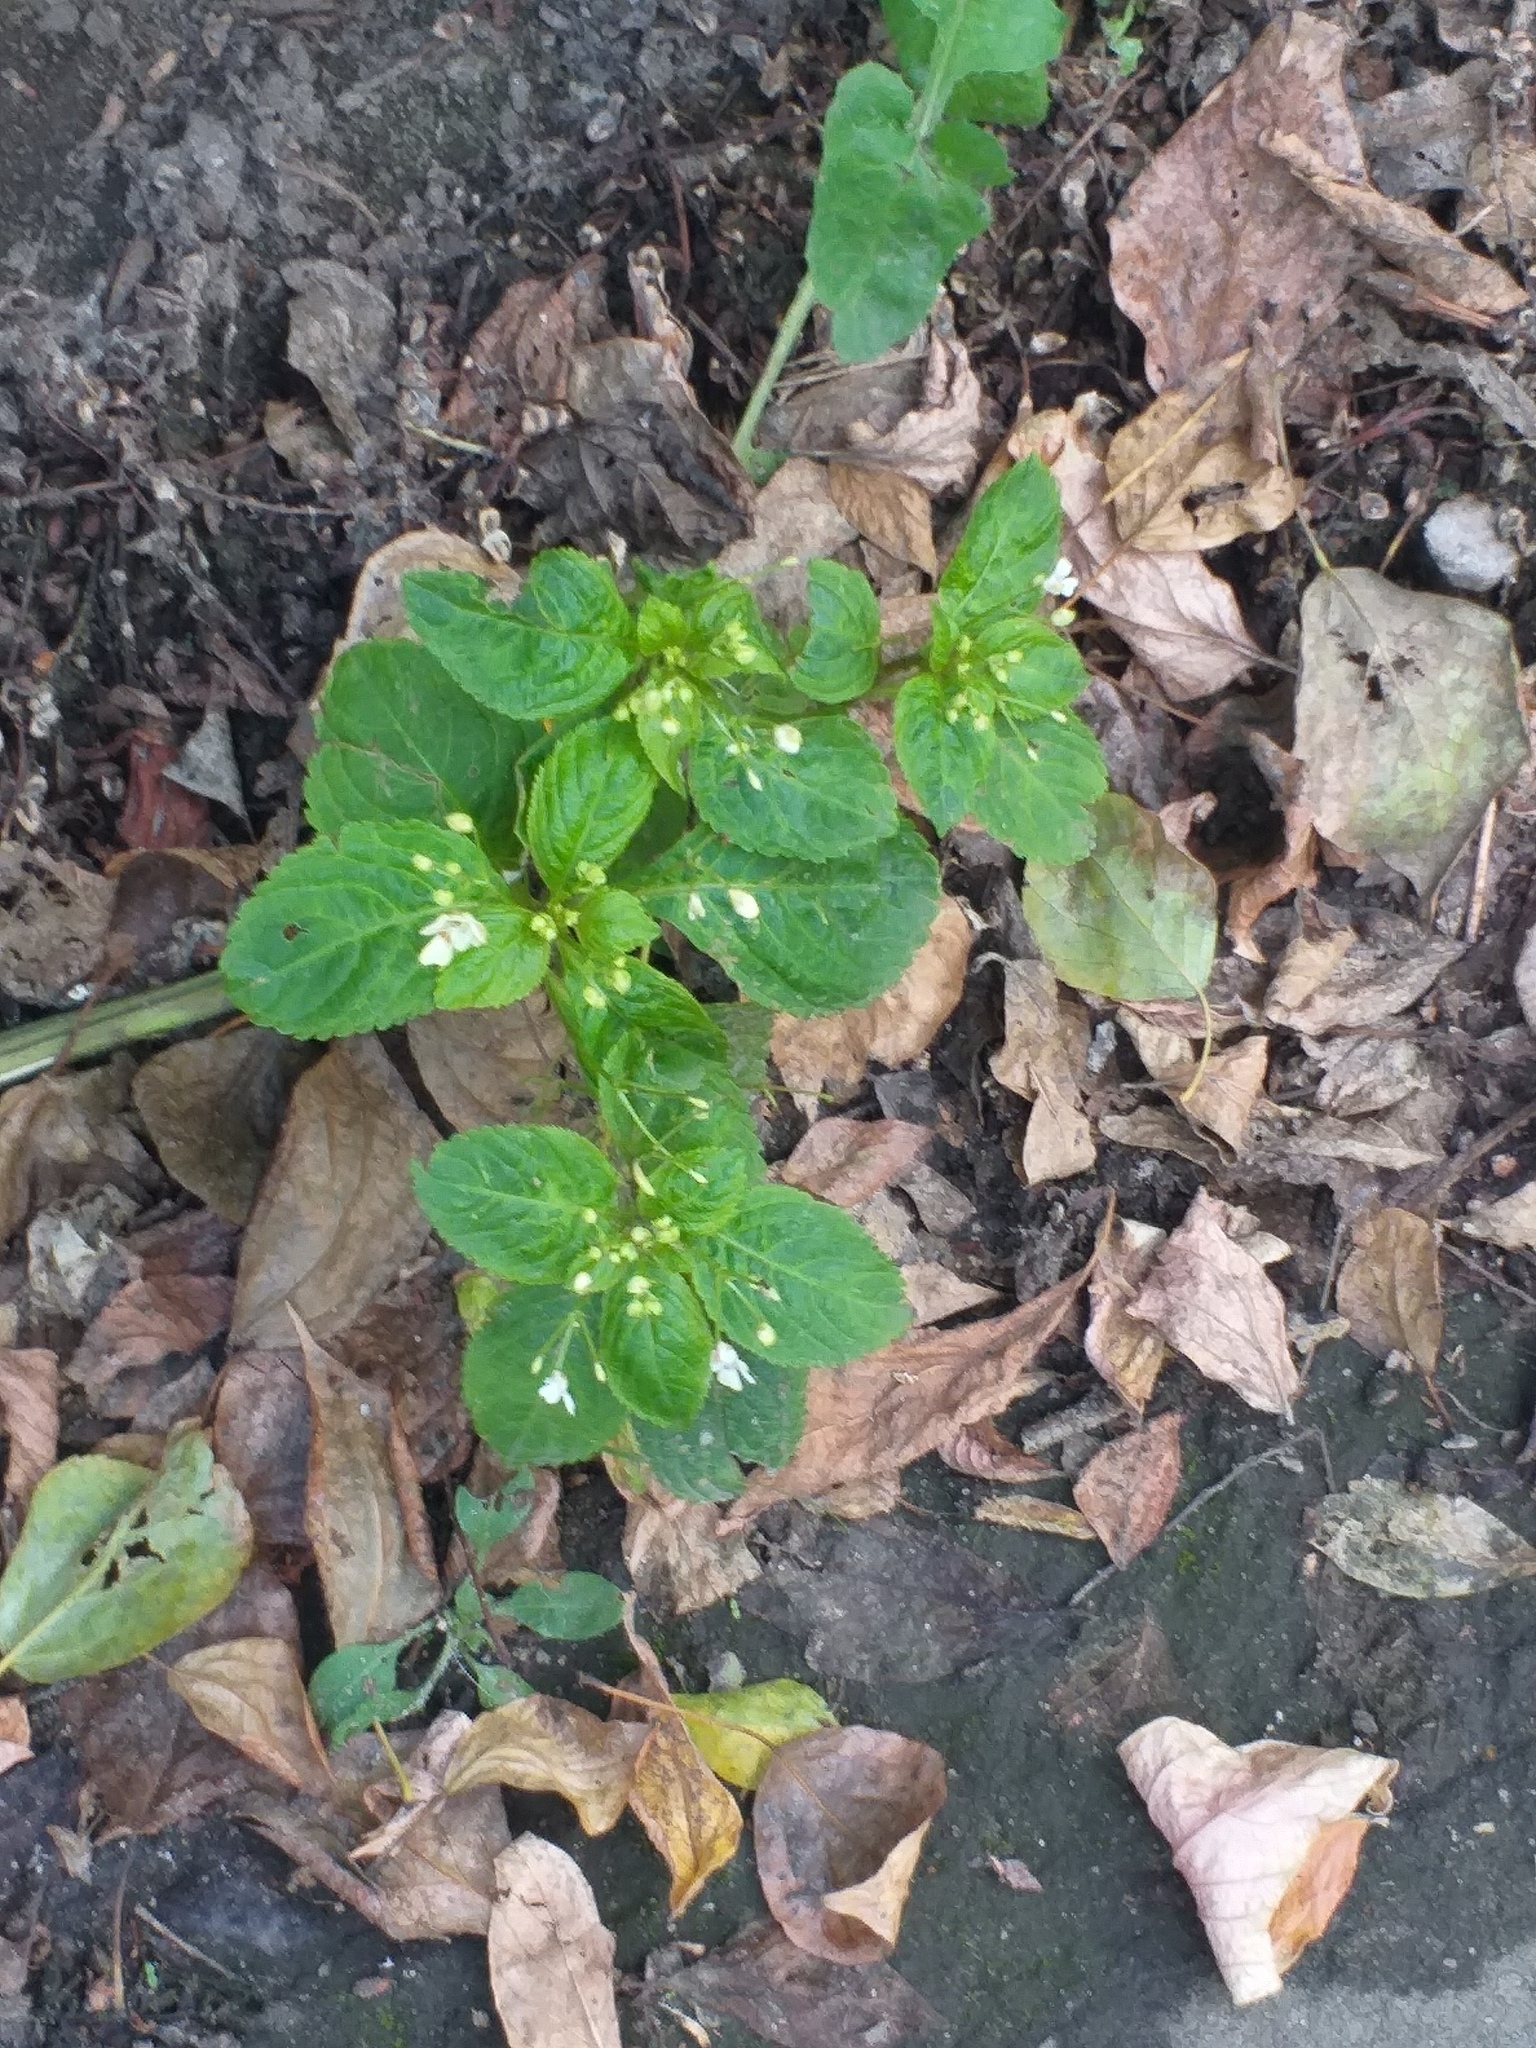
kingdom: Plantae
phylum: Tracheophyta
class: Magnoliopsida
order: Ericales
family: Balsaminaceae
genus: Impatiens
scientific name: Impatiens parviflora
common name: Small balsam
